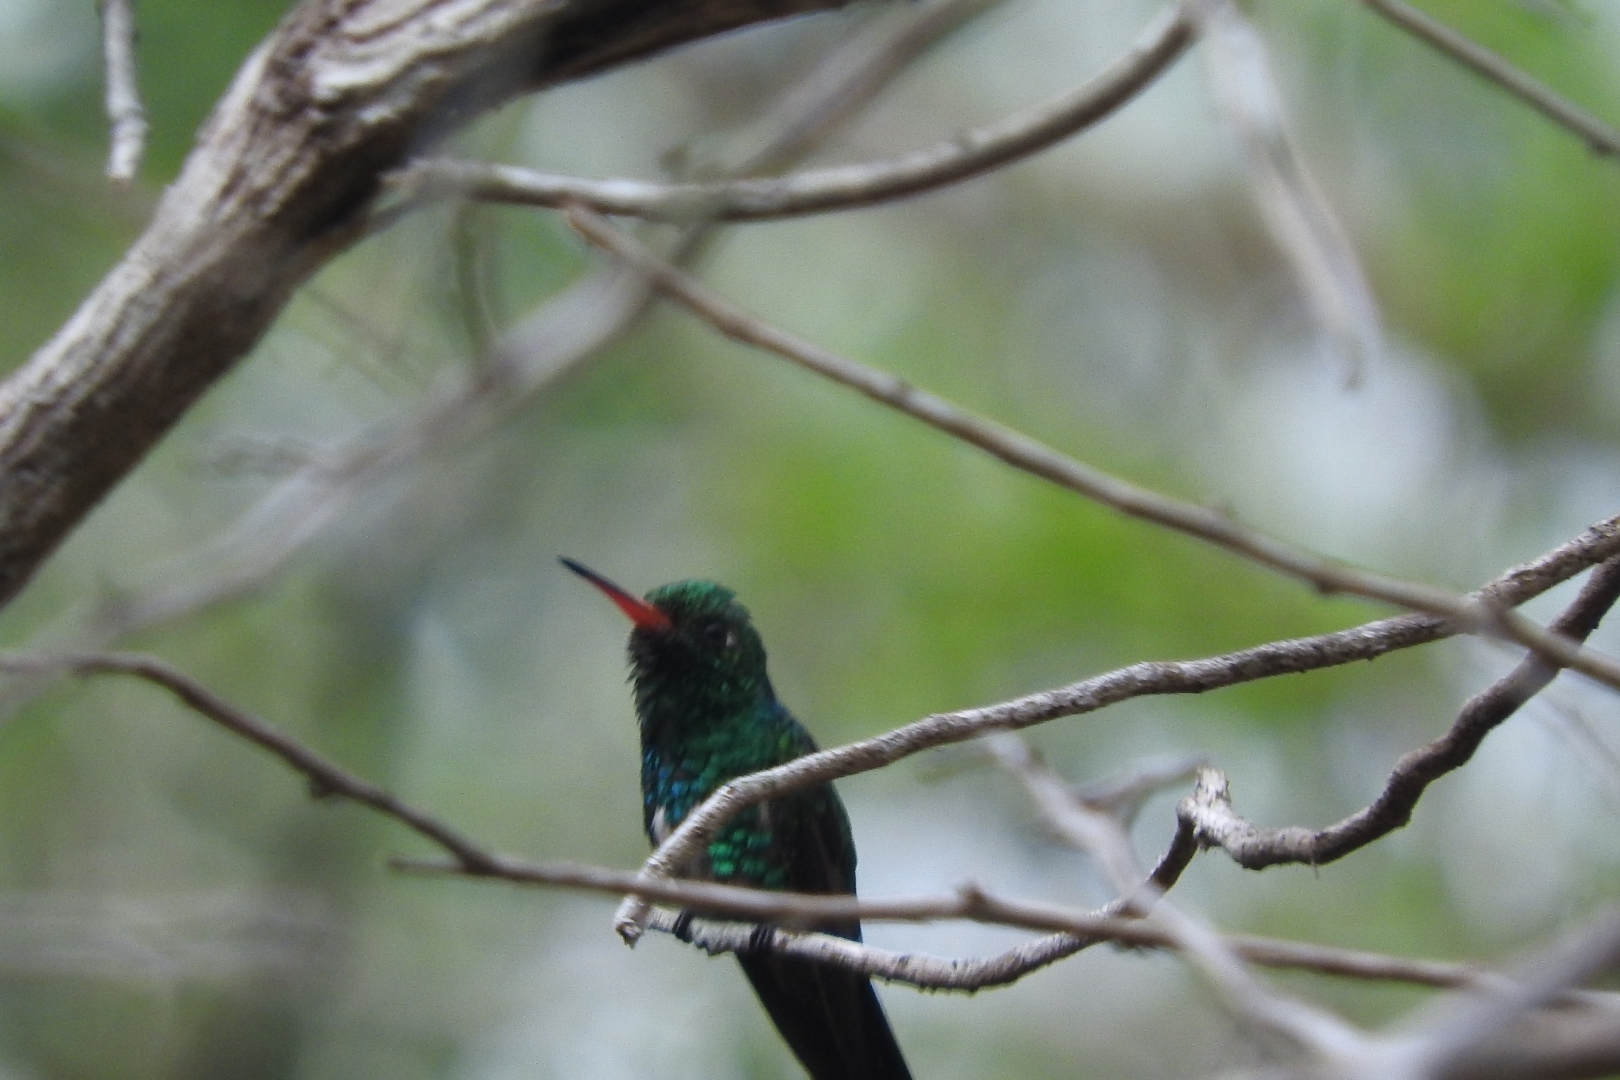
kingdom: Animalia
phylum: Chordata
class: Aves
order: Apodiformes
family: Trochilidae
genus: Cynanthus
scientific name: Cynanthus canivetii
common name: Canivet's emerald
